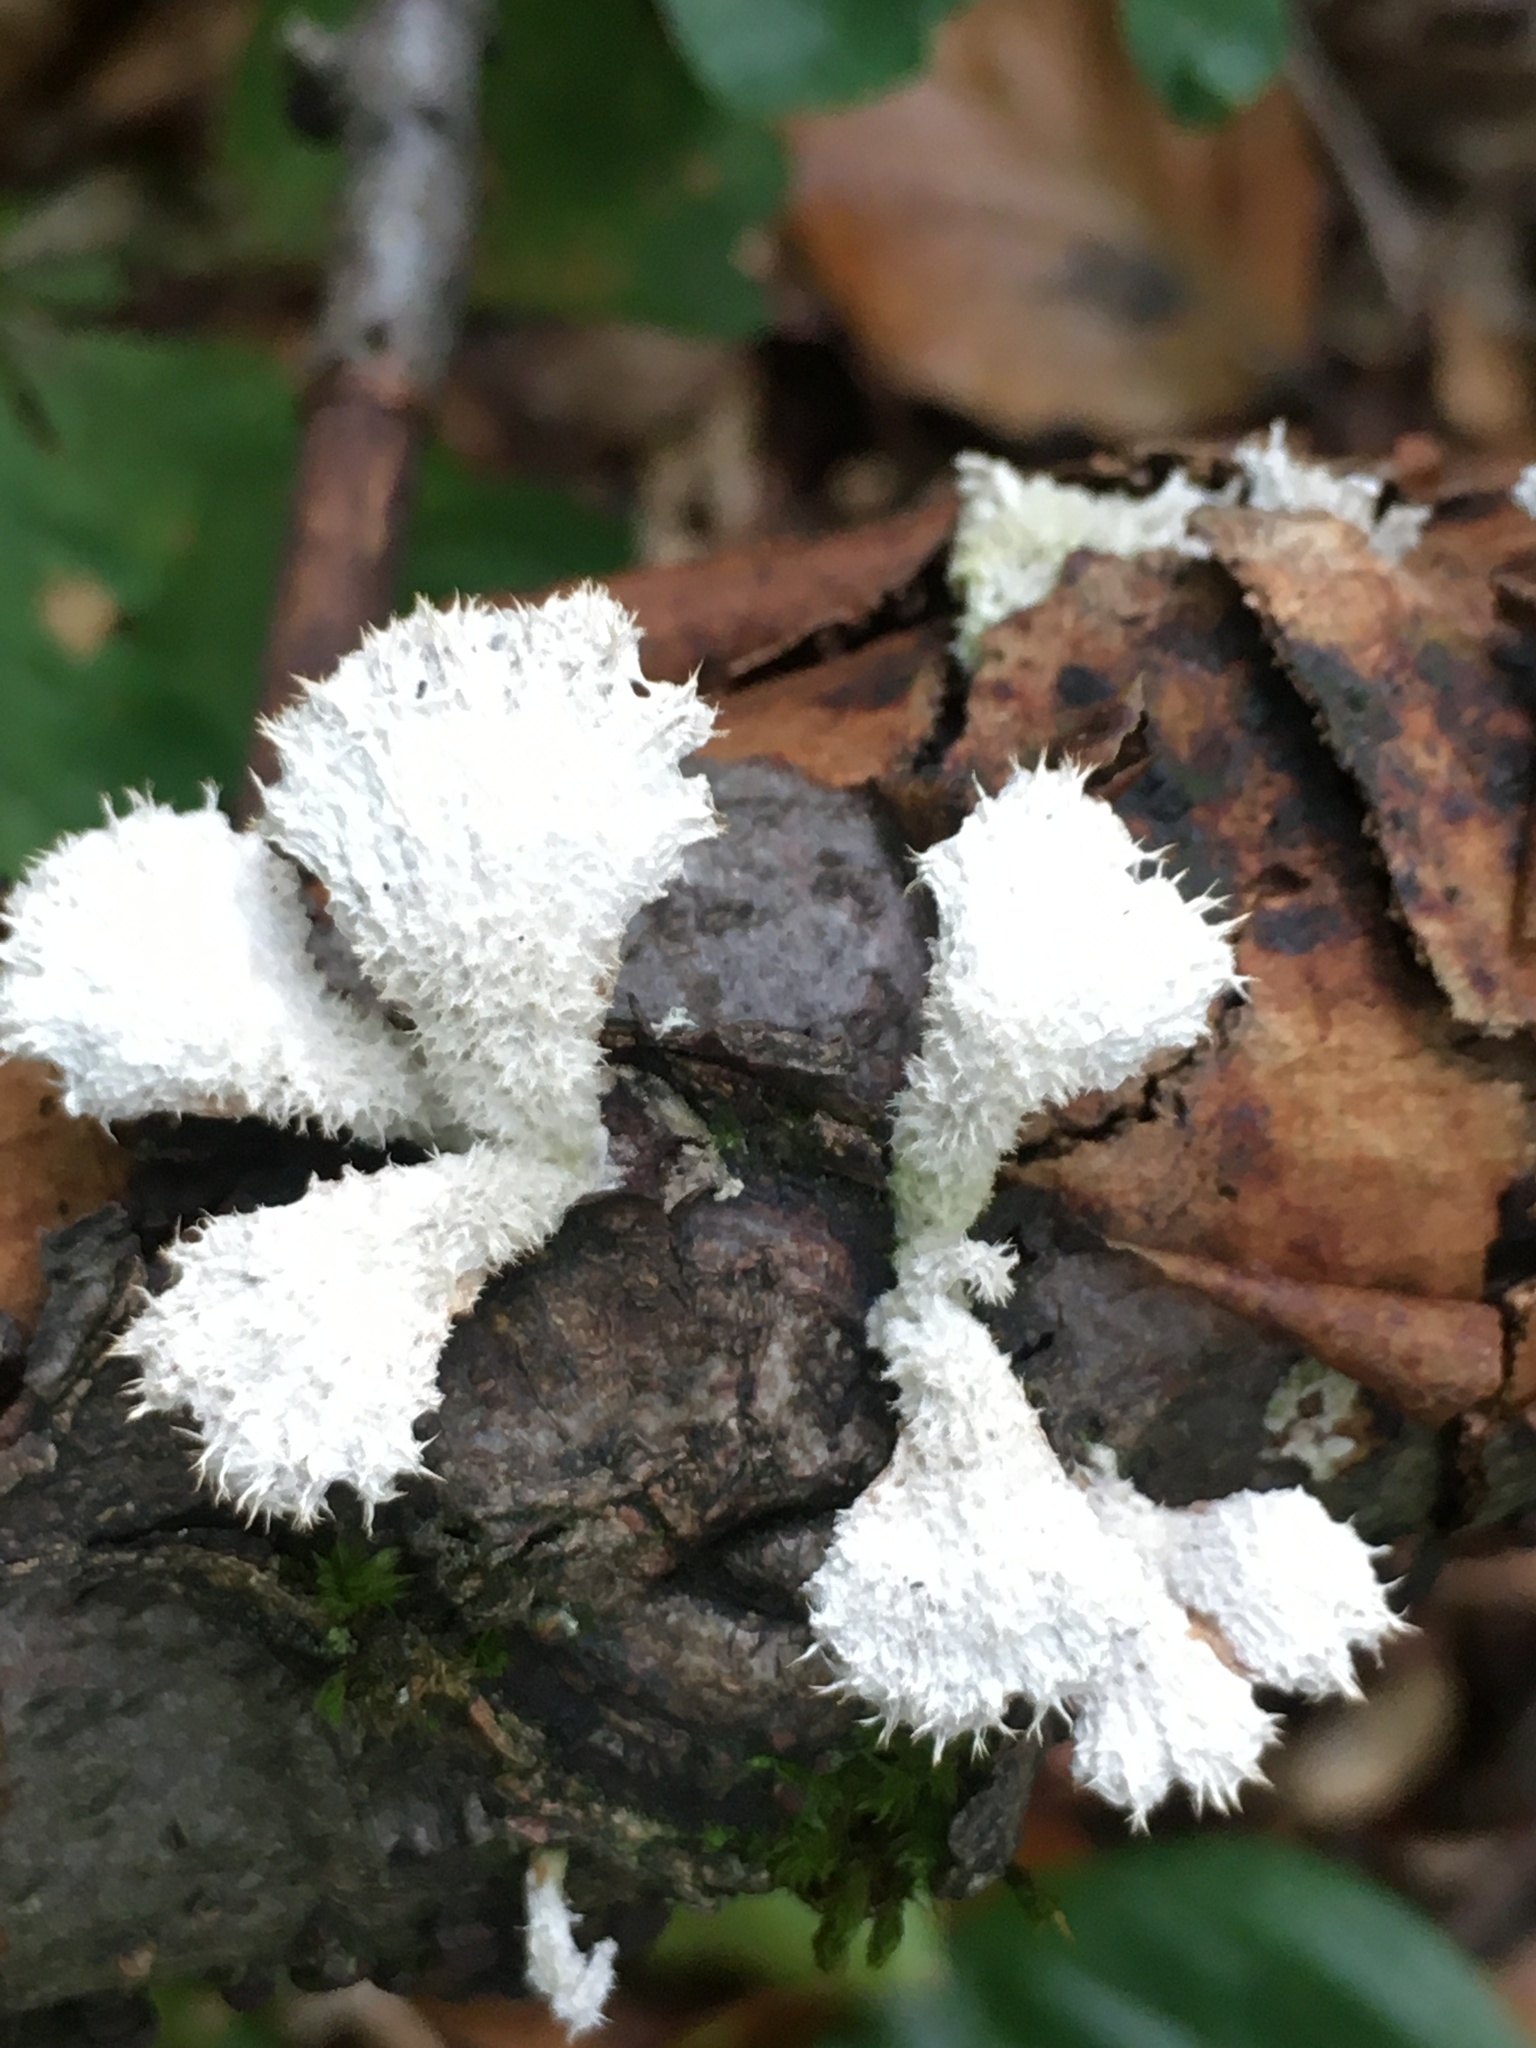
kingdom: Fungi
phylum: Basidiomycota
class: Agaricomycetes
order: Agaricales
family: Schizophyllaceae
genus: Schizophyllum
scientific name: Schizophyllum commune
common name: Common porecrust
